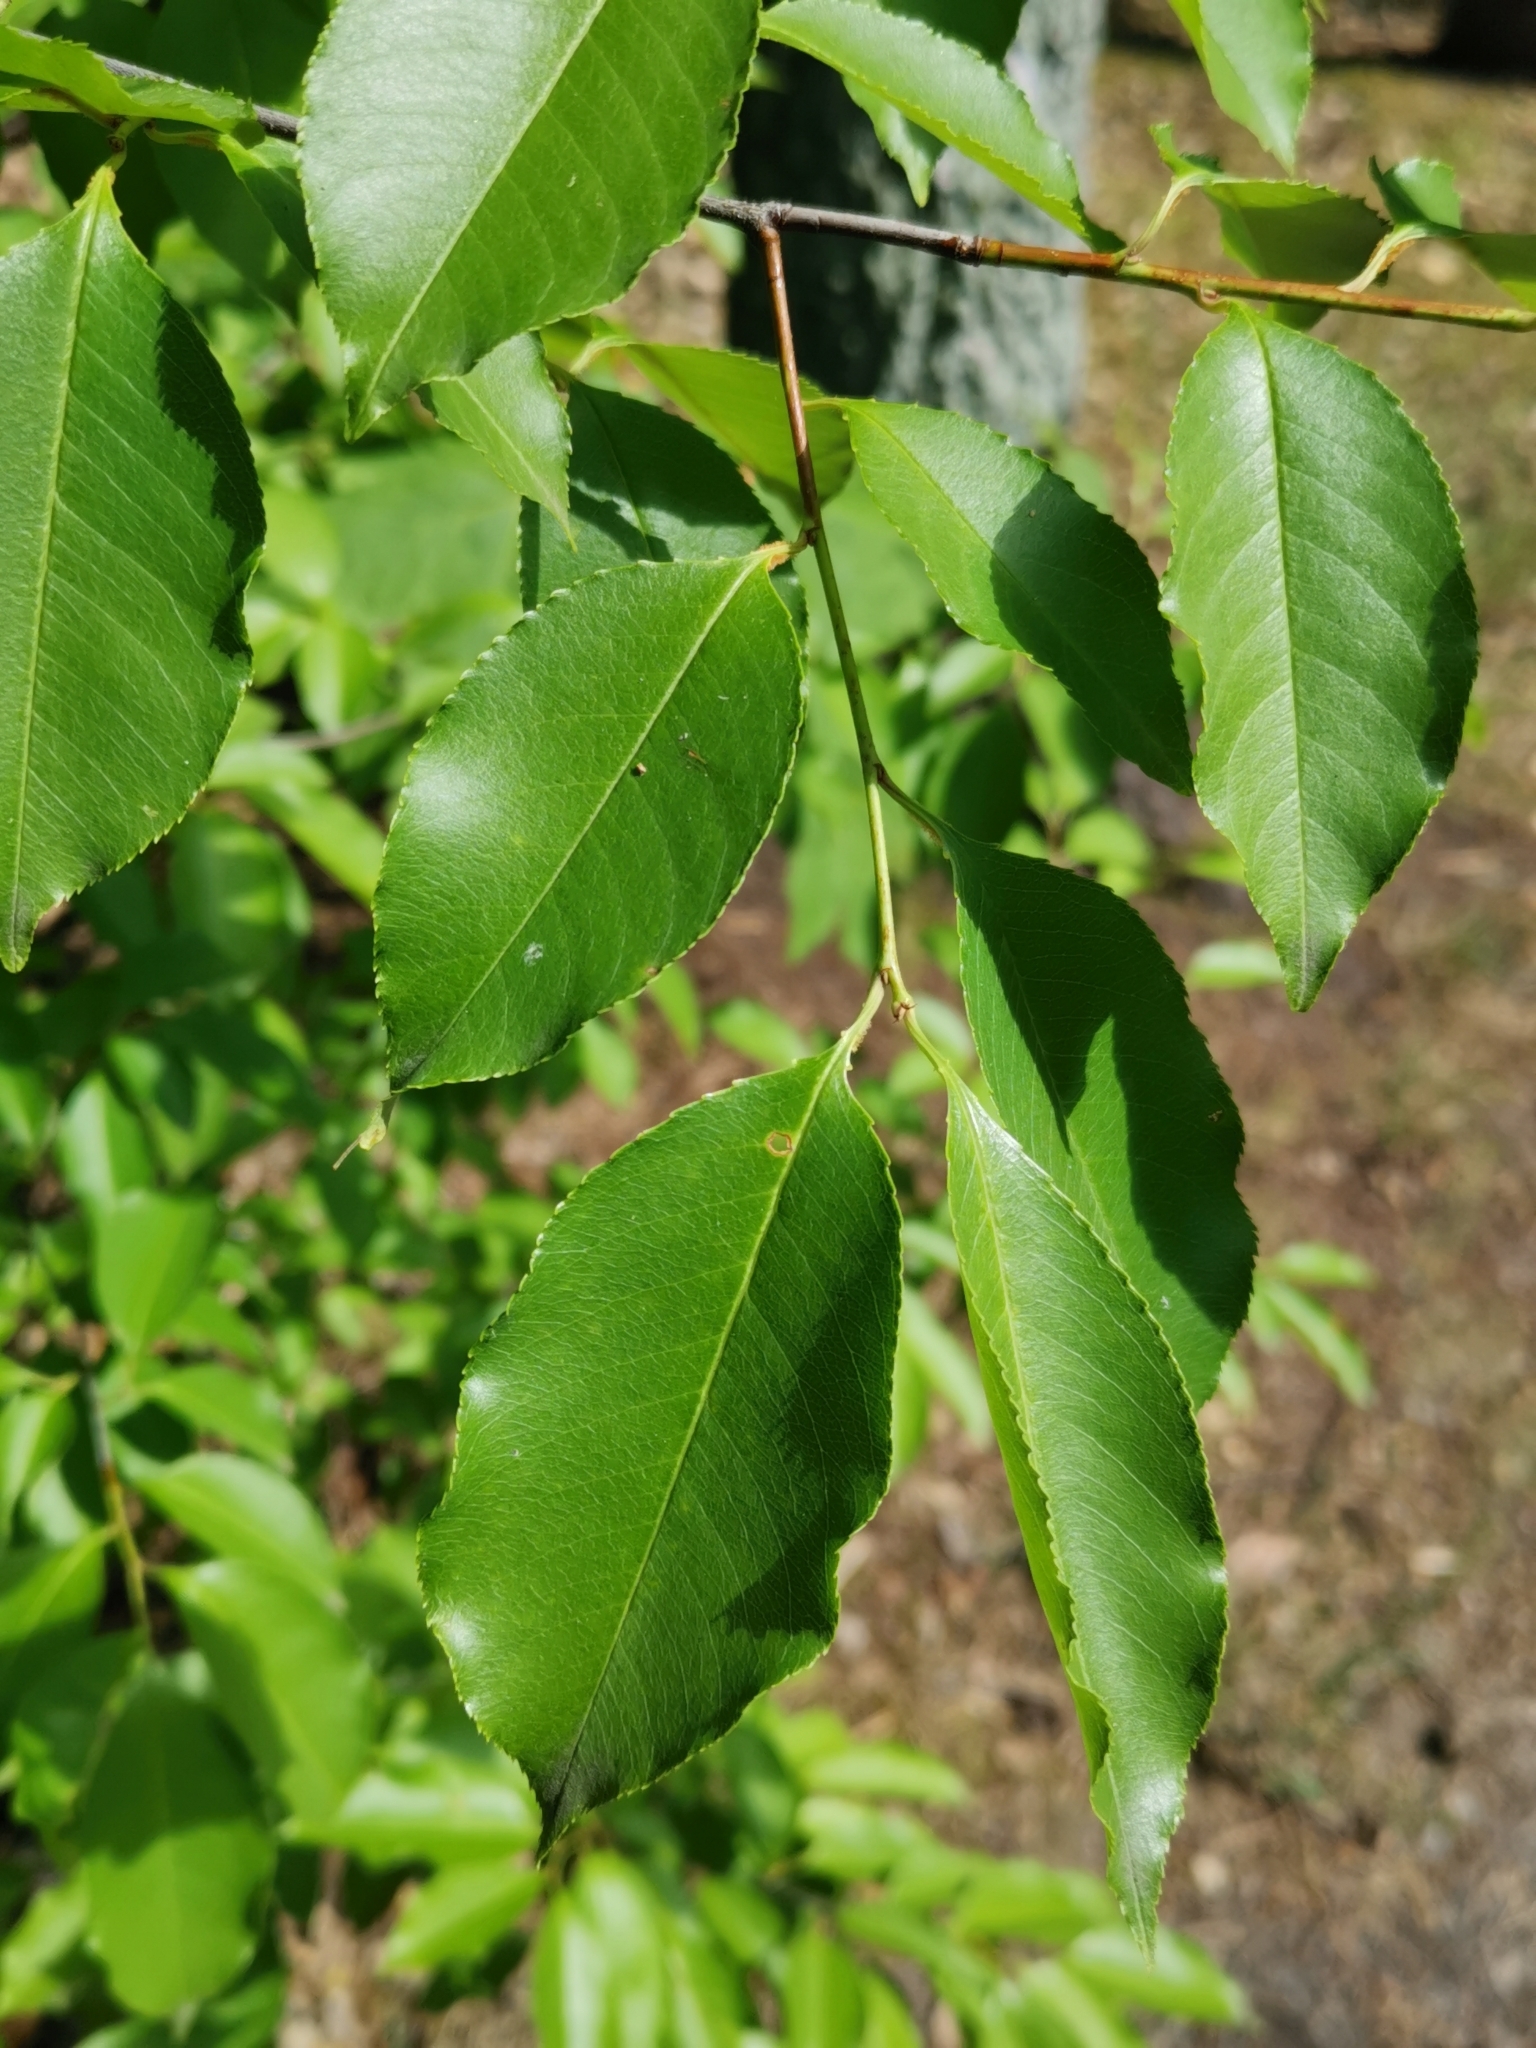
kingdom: Plantae
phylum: Tracheophyta
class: Magnoliopsida
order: Rosales
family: Rosaceae
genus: Prunus
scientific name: Prunus serotina
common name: Black cherry
